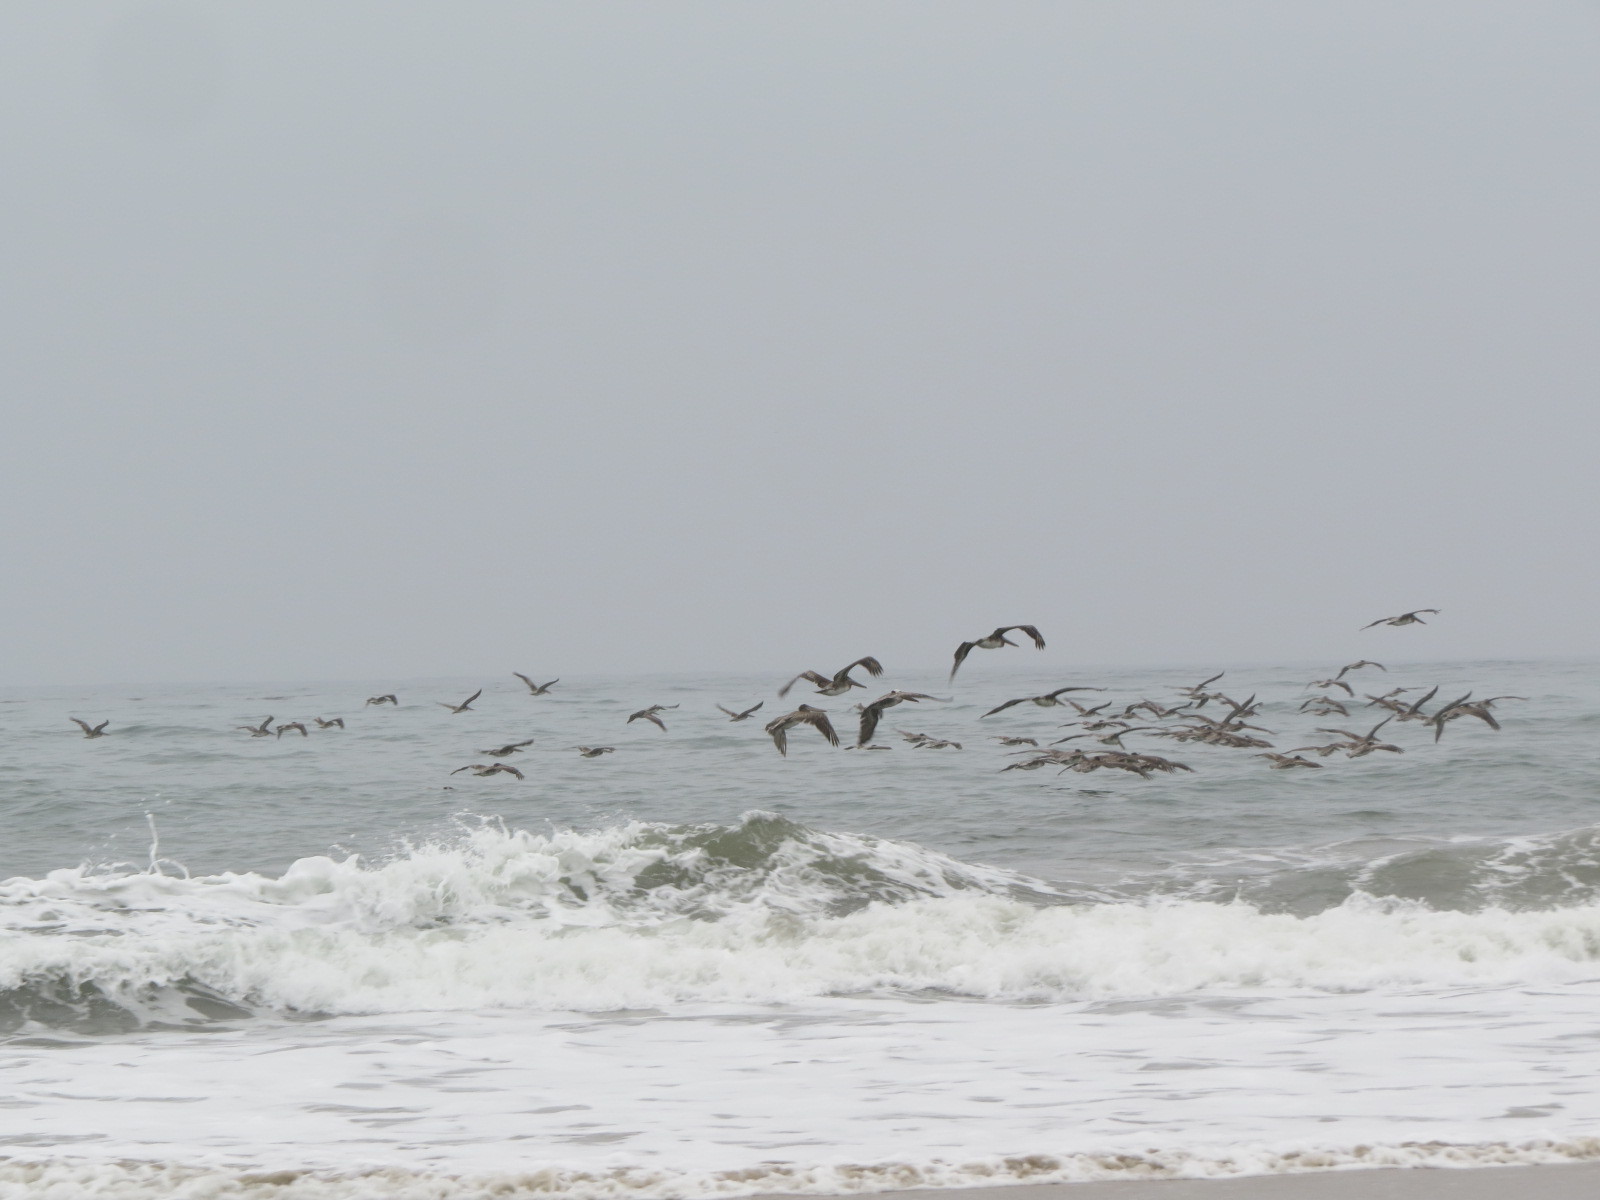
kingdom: Animalia
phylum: Chordata
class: Aves
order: Pelecaniformes
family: Pelecanidae
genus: Pelecanus
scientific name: Pelecanus occidentalis
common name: Brown pelican
